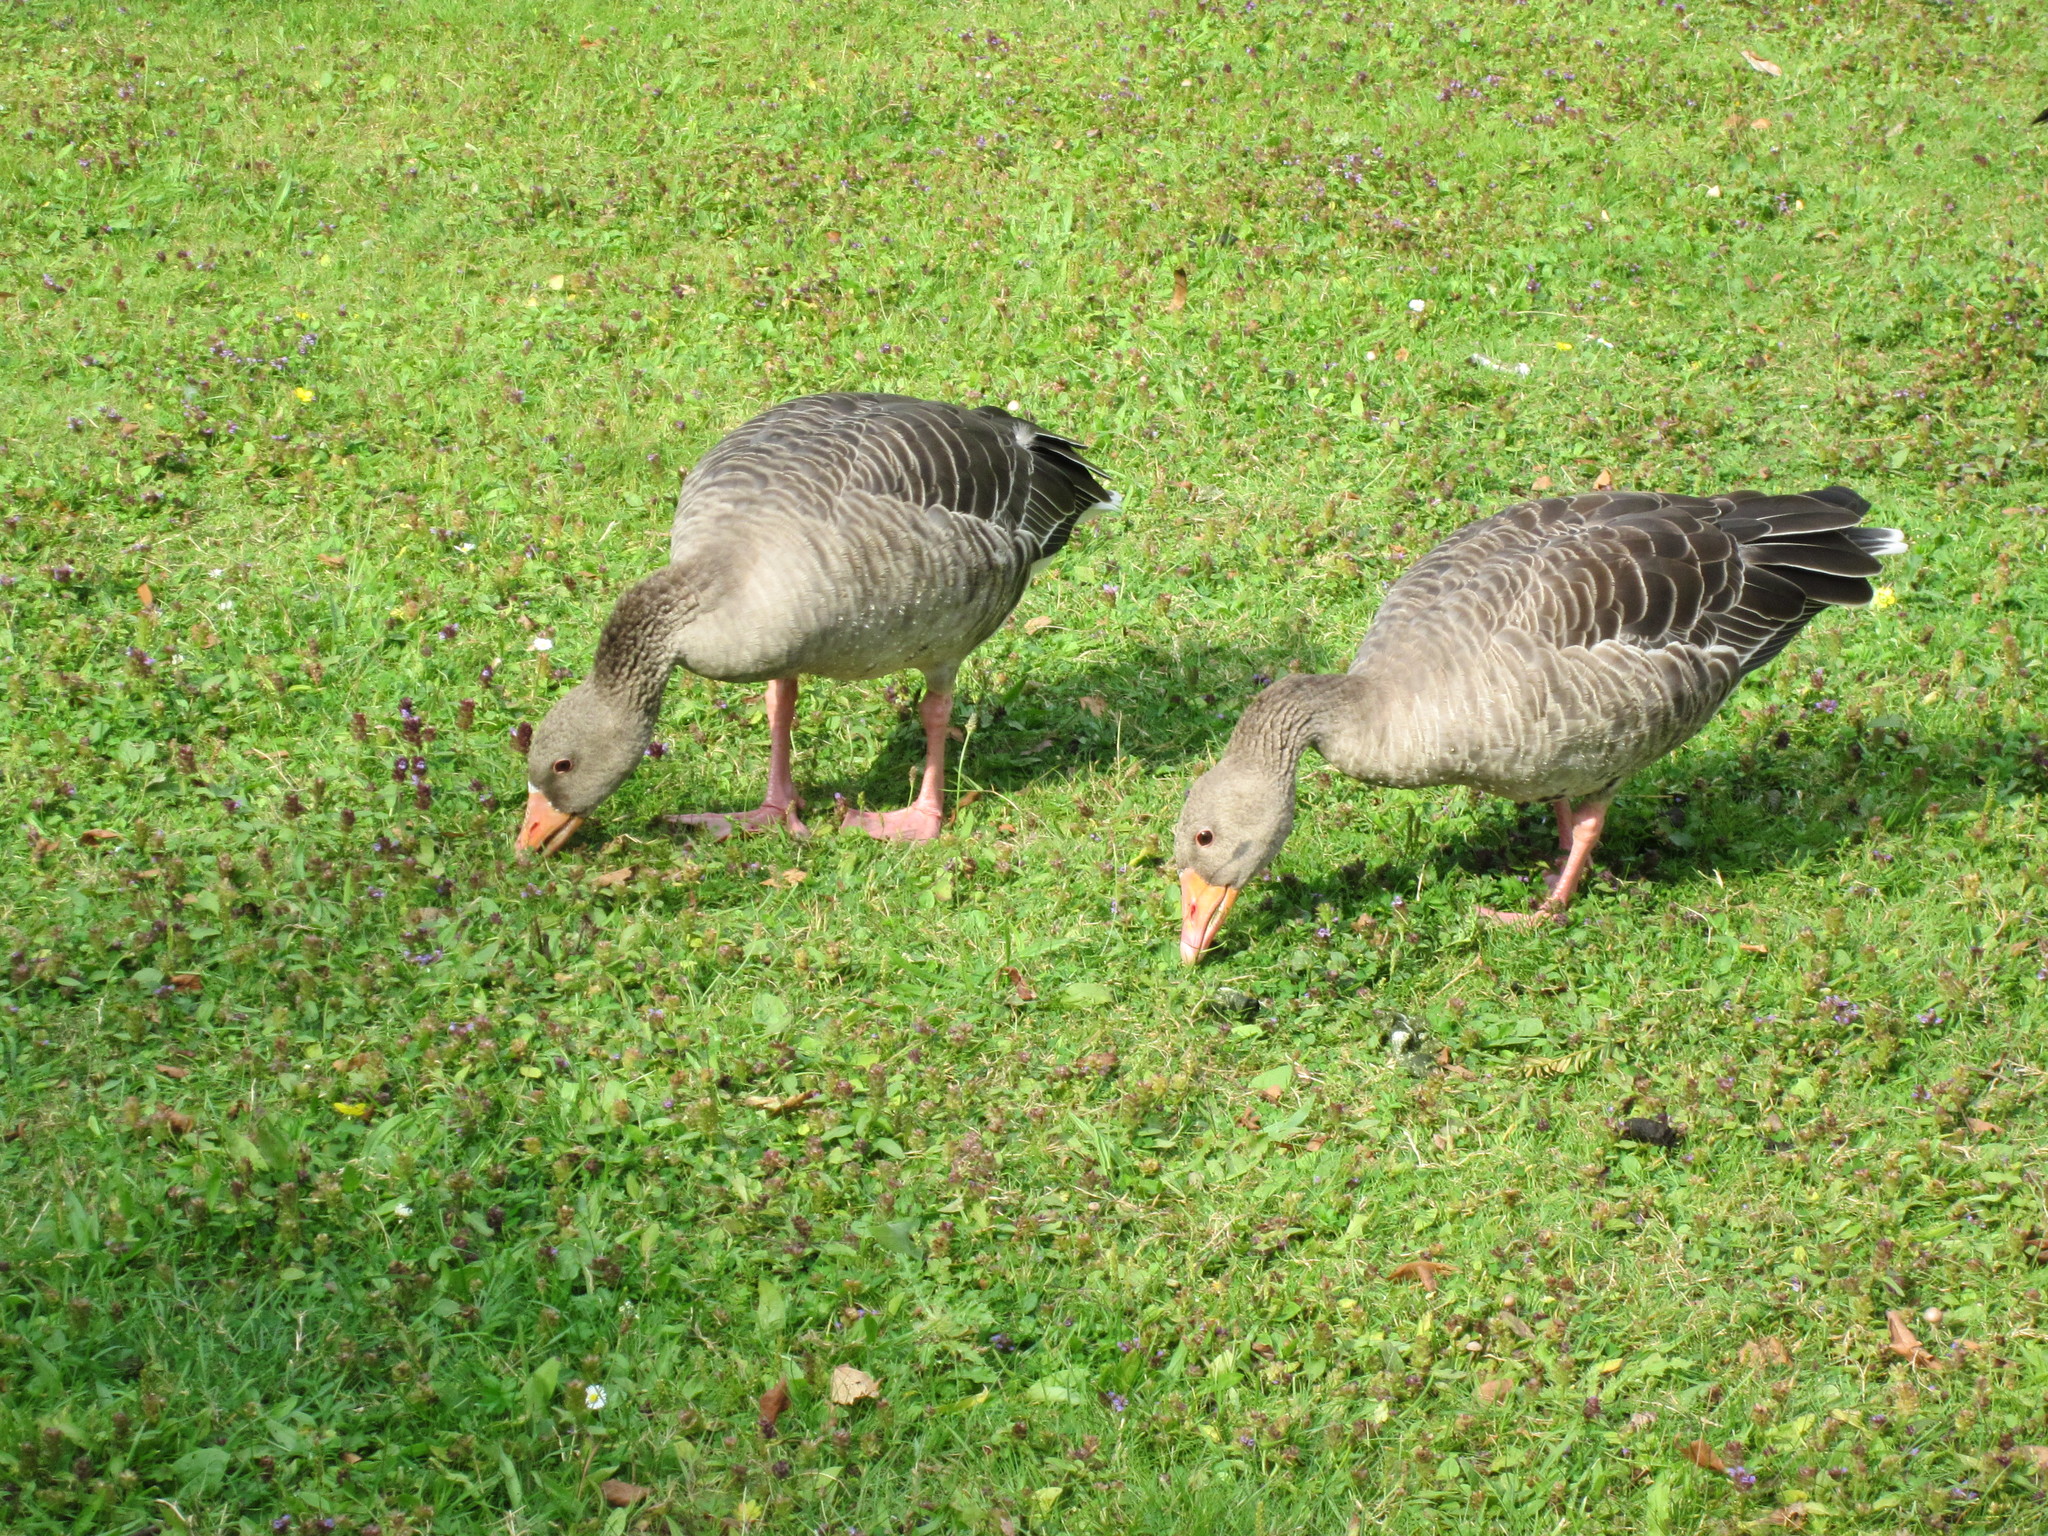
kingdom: Animalia
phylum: Chordata
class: Aves
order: Anseriformes
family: Anatidae
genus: Anser
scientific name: Anser anser
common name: Greylag goose
